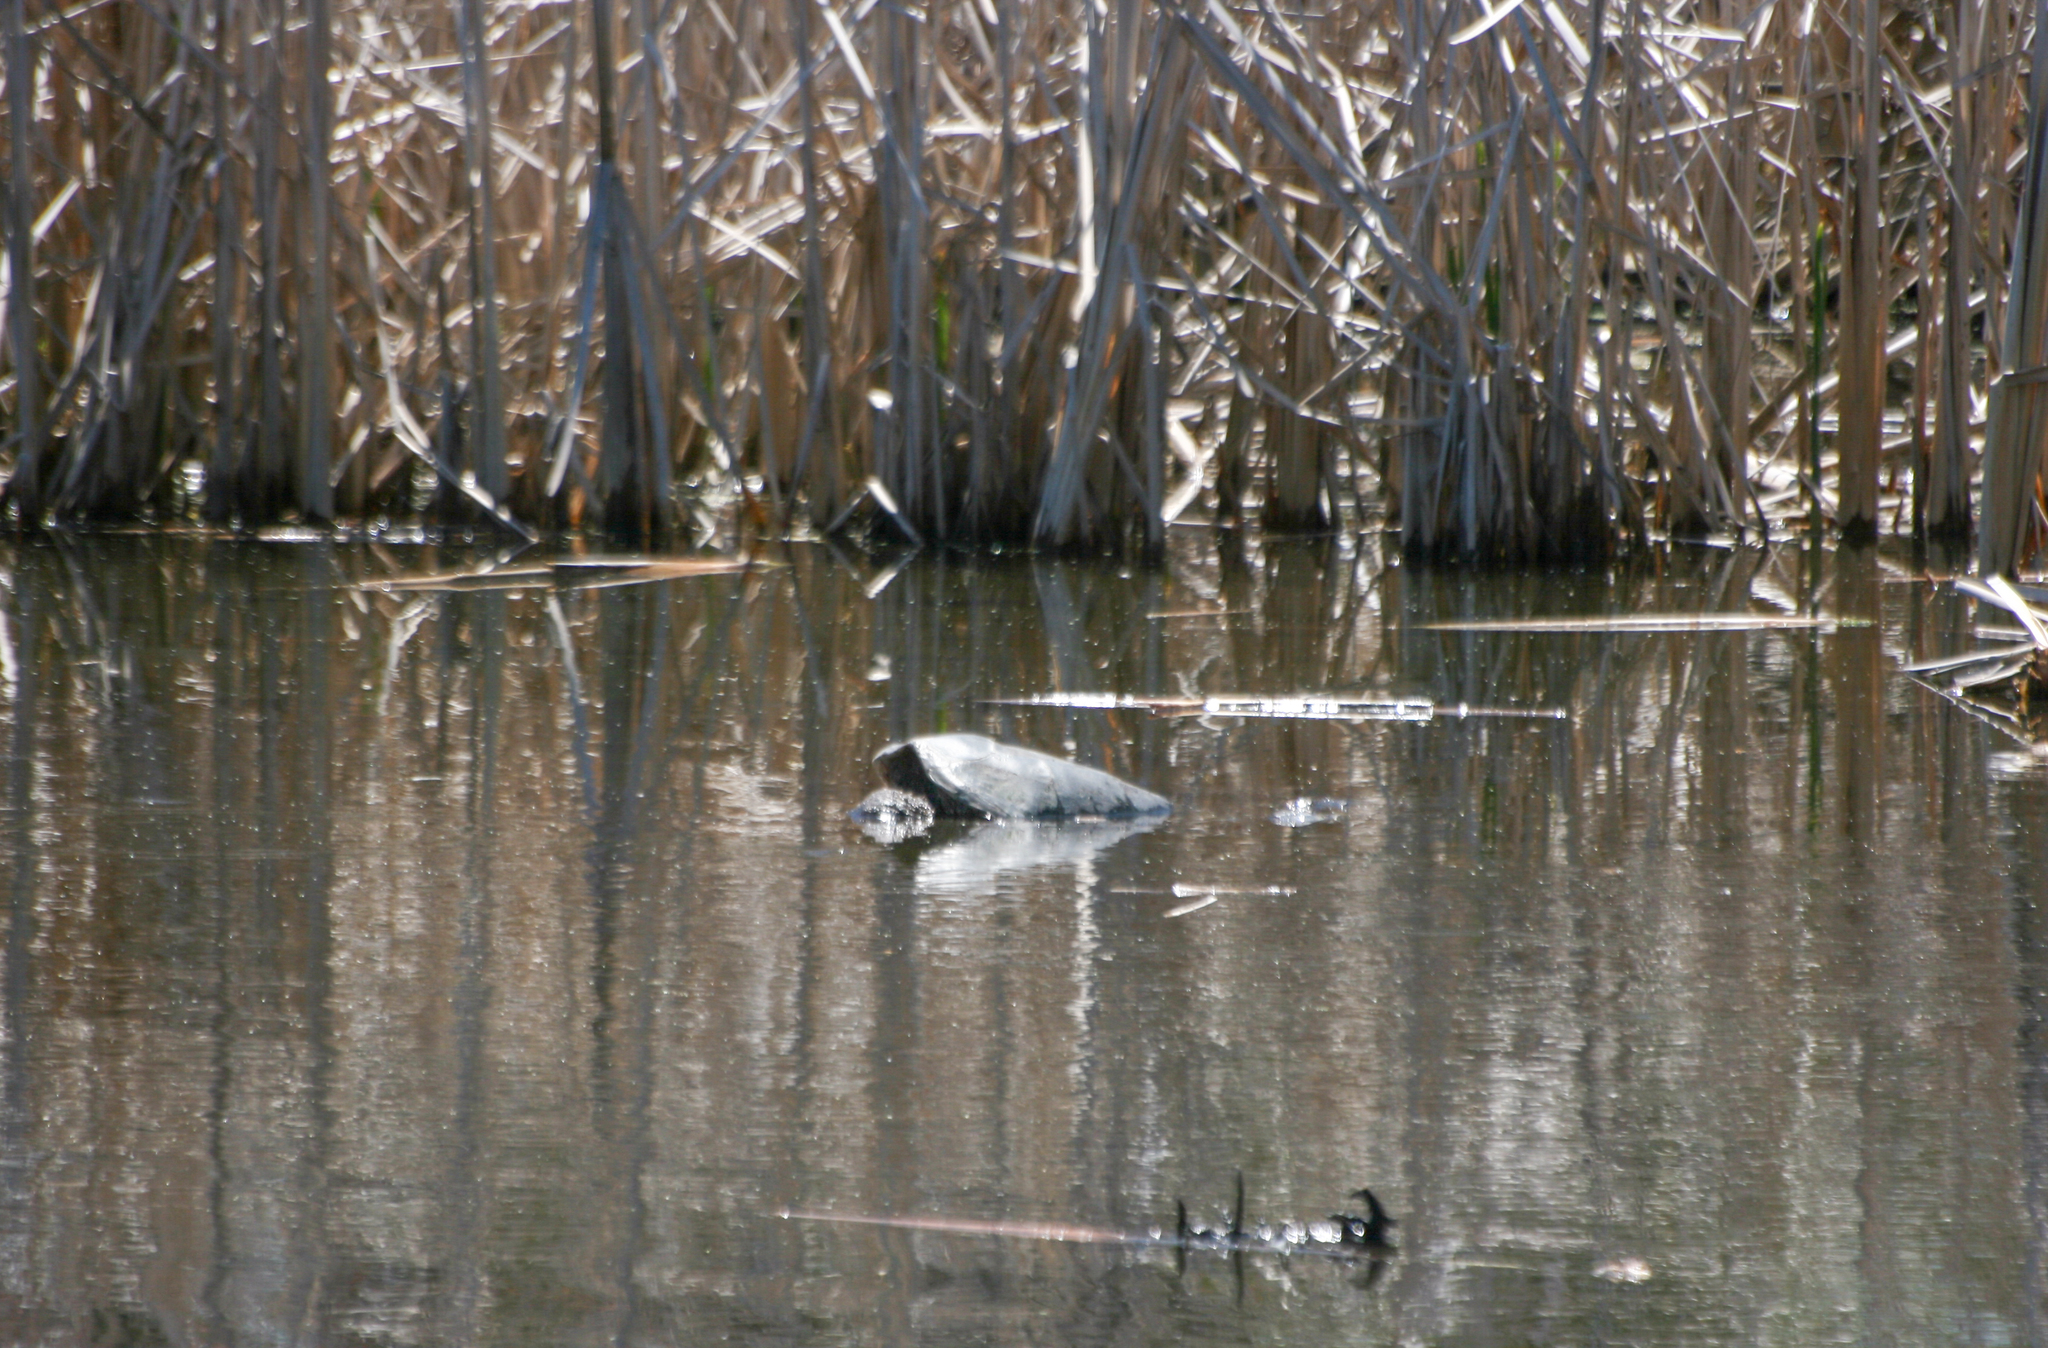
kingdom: Animalia
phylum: Chordata
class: Testudines
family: Chelydridae
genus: Chelydra
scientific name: Chelydra serpentina
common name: Common snapping turtle
